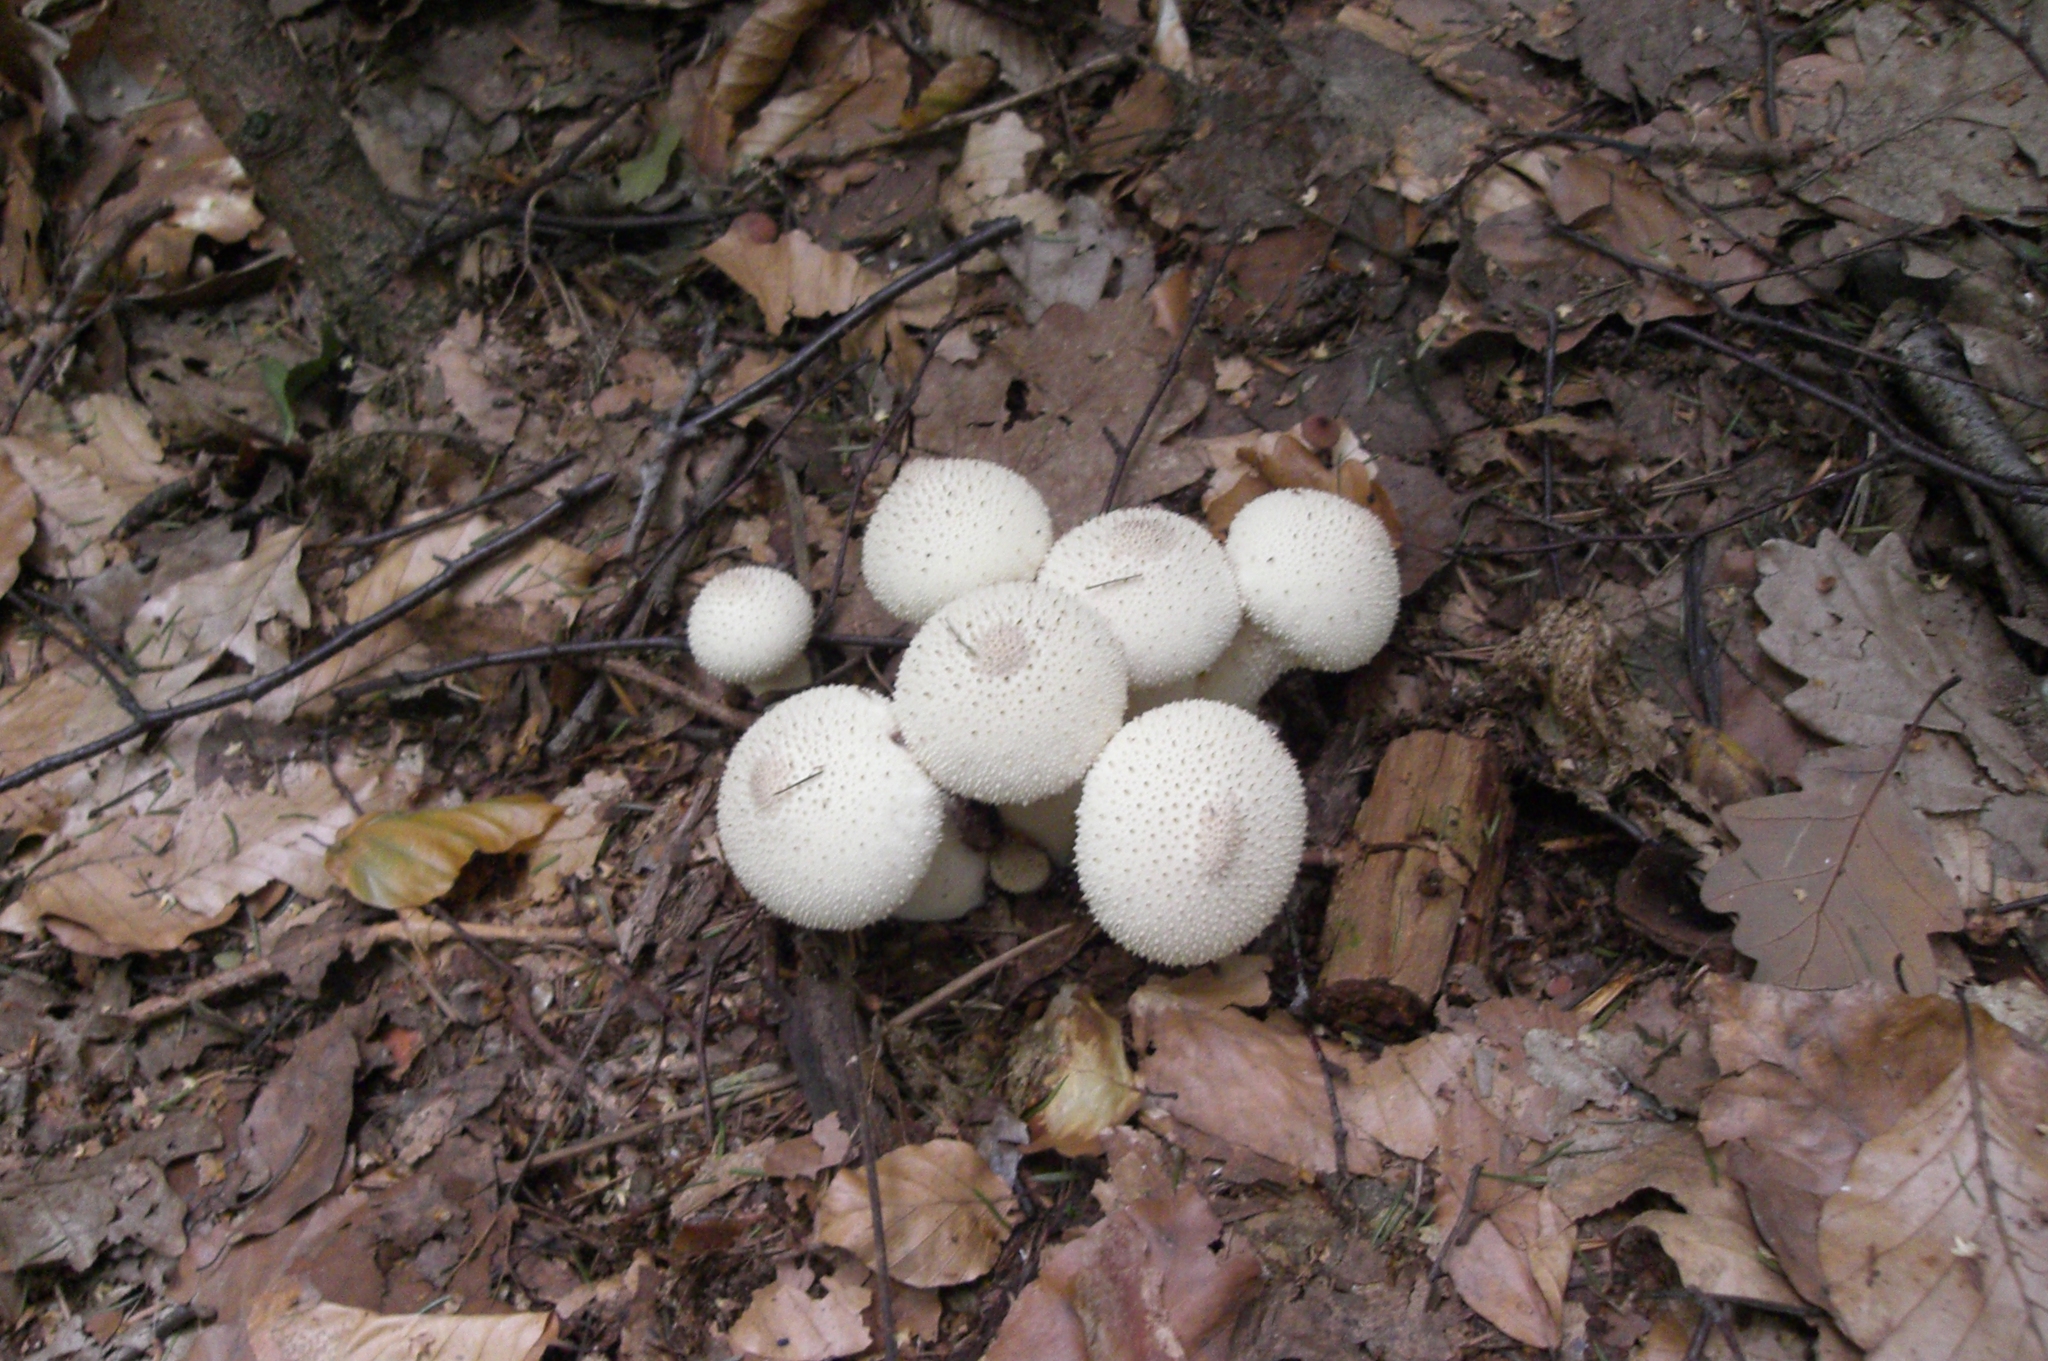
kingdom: Fungi
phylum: Basidiomycota
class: Agaricomycetes
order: Agaricales
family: Lycoperdaceae
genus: Lycoperdon
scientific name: Lycoperdon perlatum
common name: Common puffball
